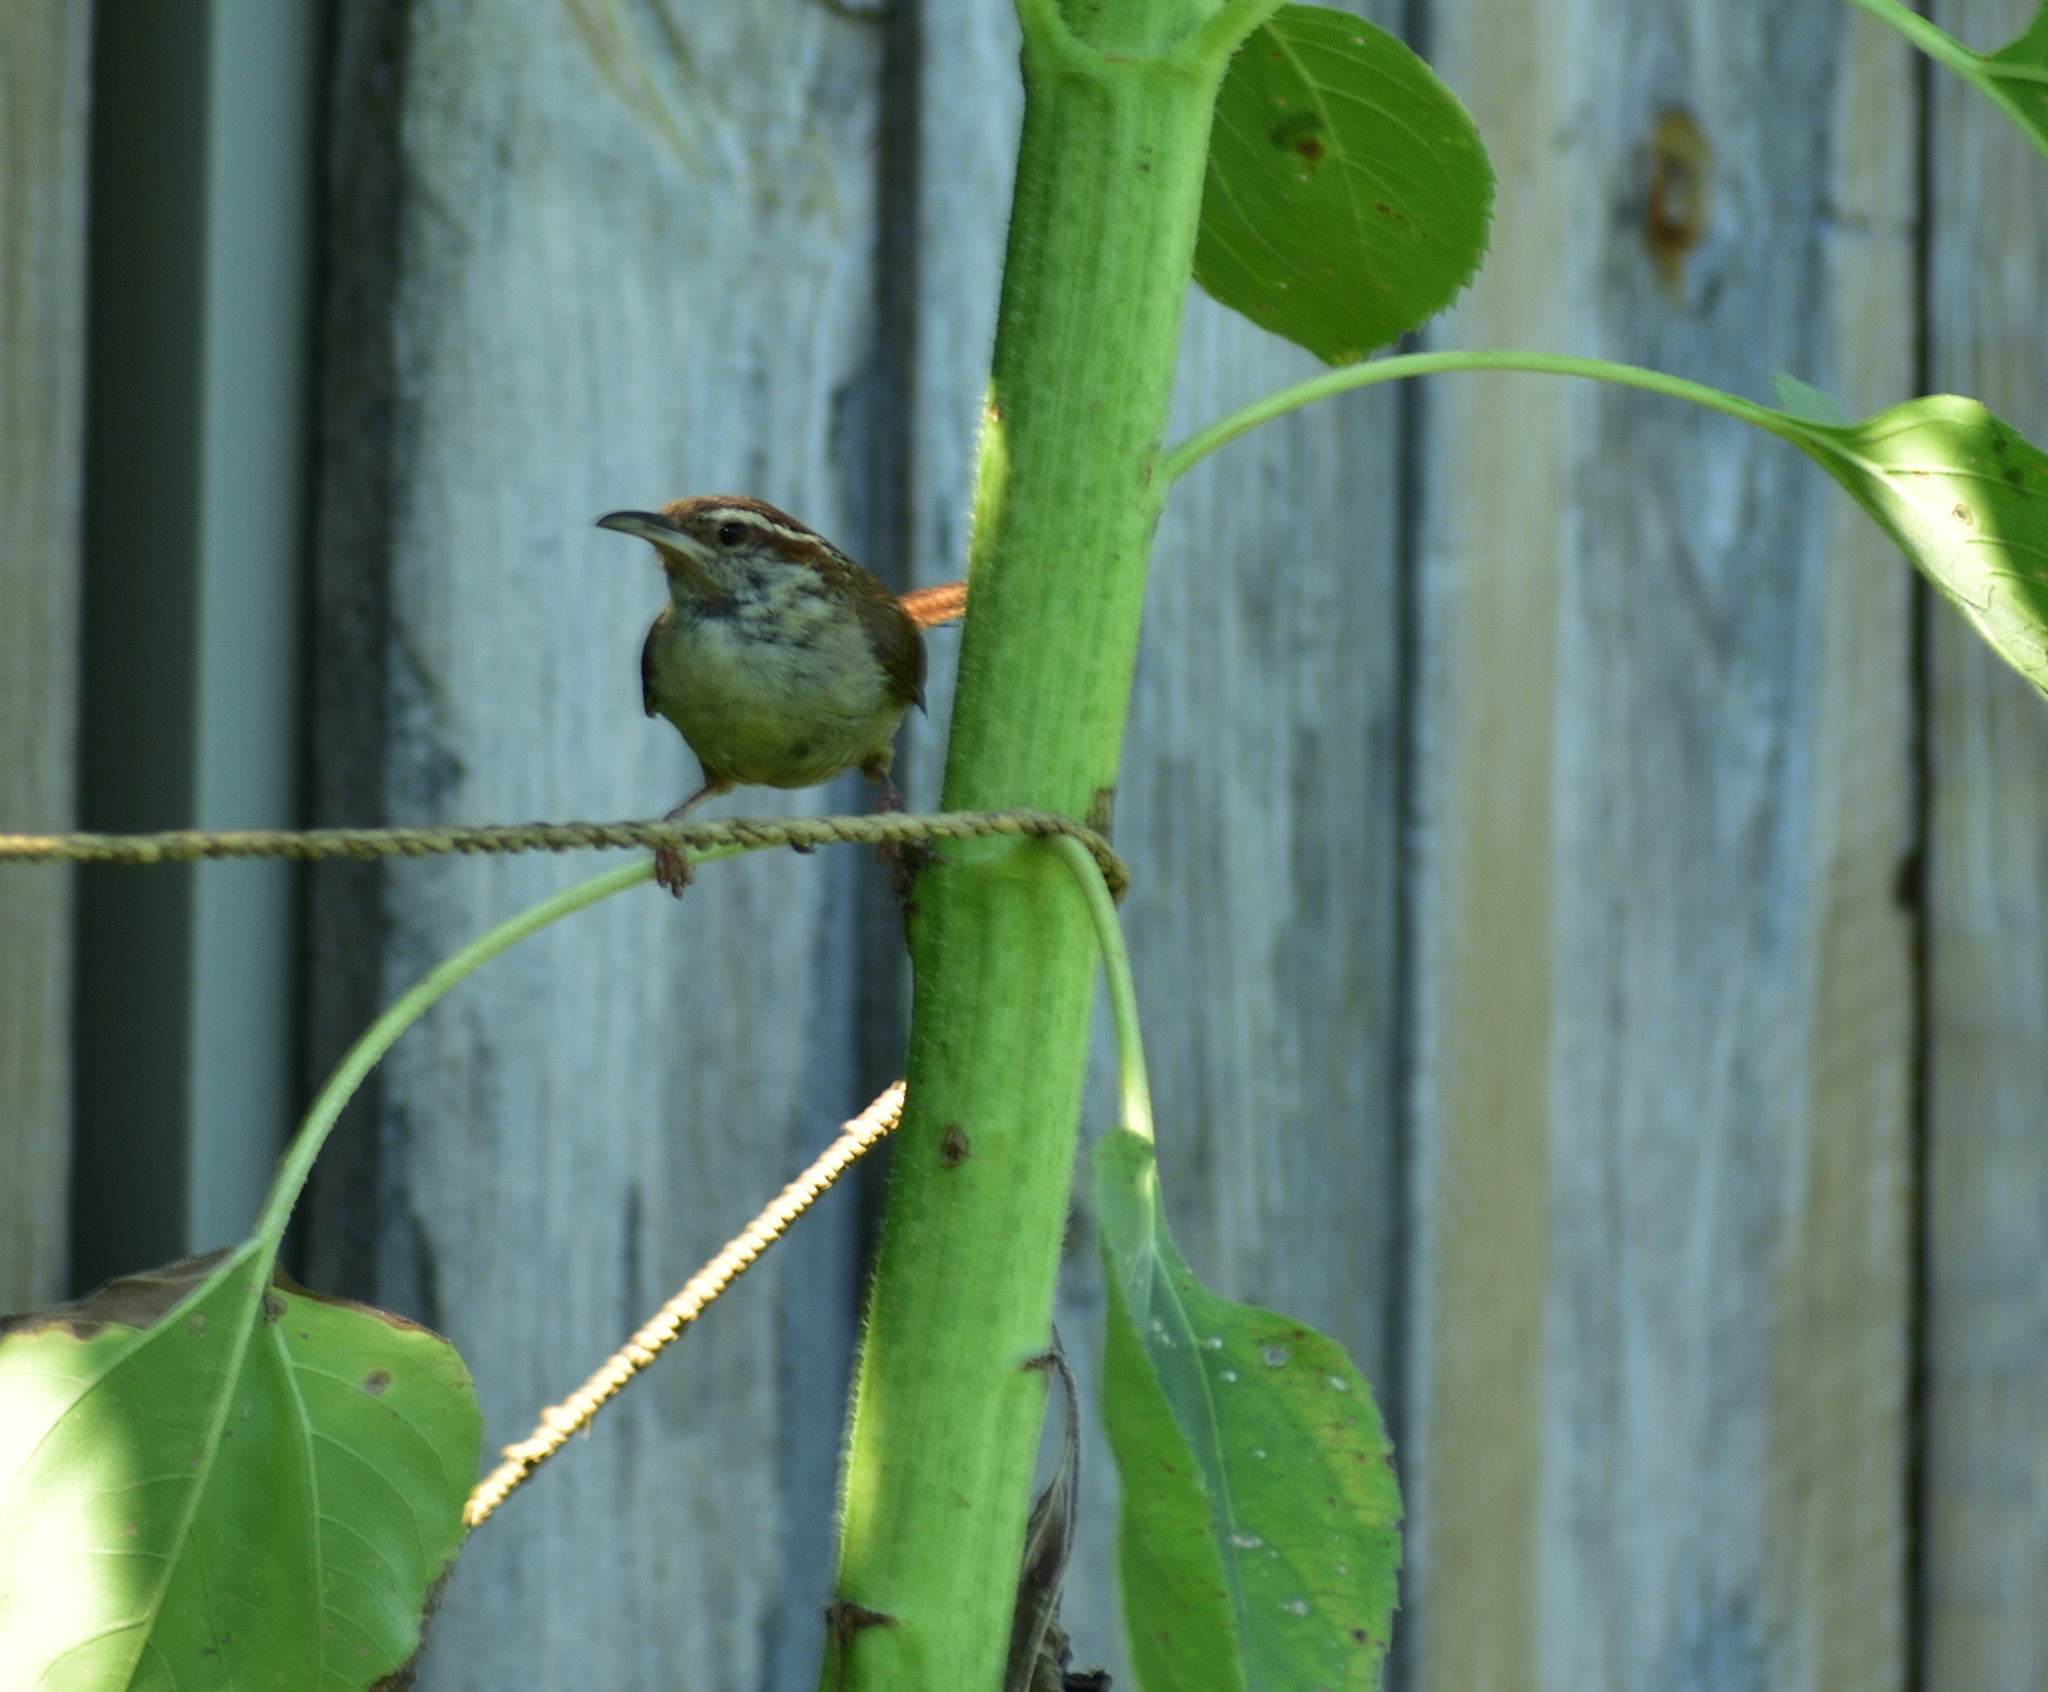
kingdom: Animalia
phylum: Chordata
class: Aves
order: Passeriformes
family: Troglodytidae
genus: Thryothorus
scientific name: Thryothorus ludovicianus
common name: Carolina wren
